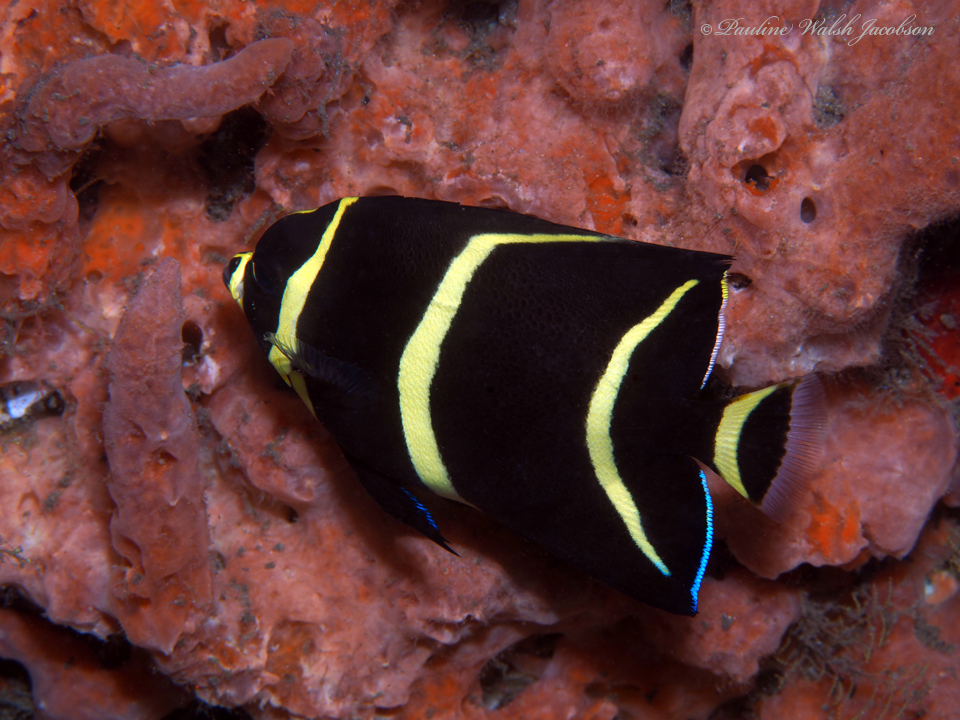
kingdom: Animalia
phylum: Chordata
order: Perciformes
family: Pomacanthidae
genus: Pomacanthus
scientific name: Pomacanthus arcuatus
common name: Gray angelfish
